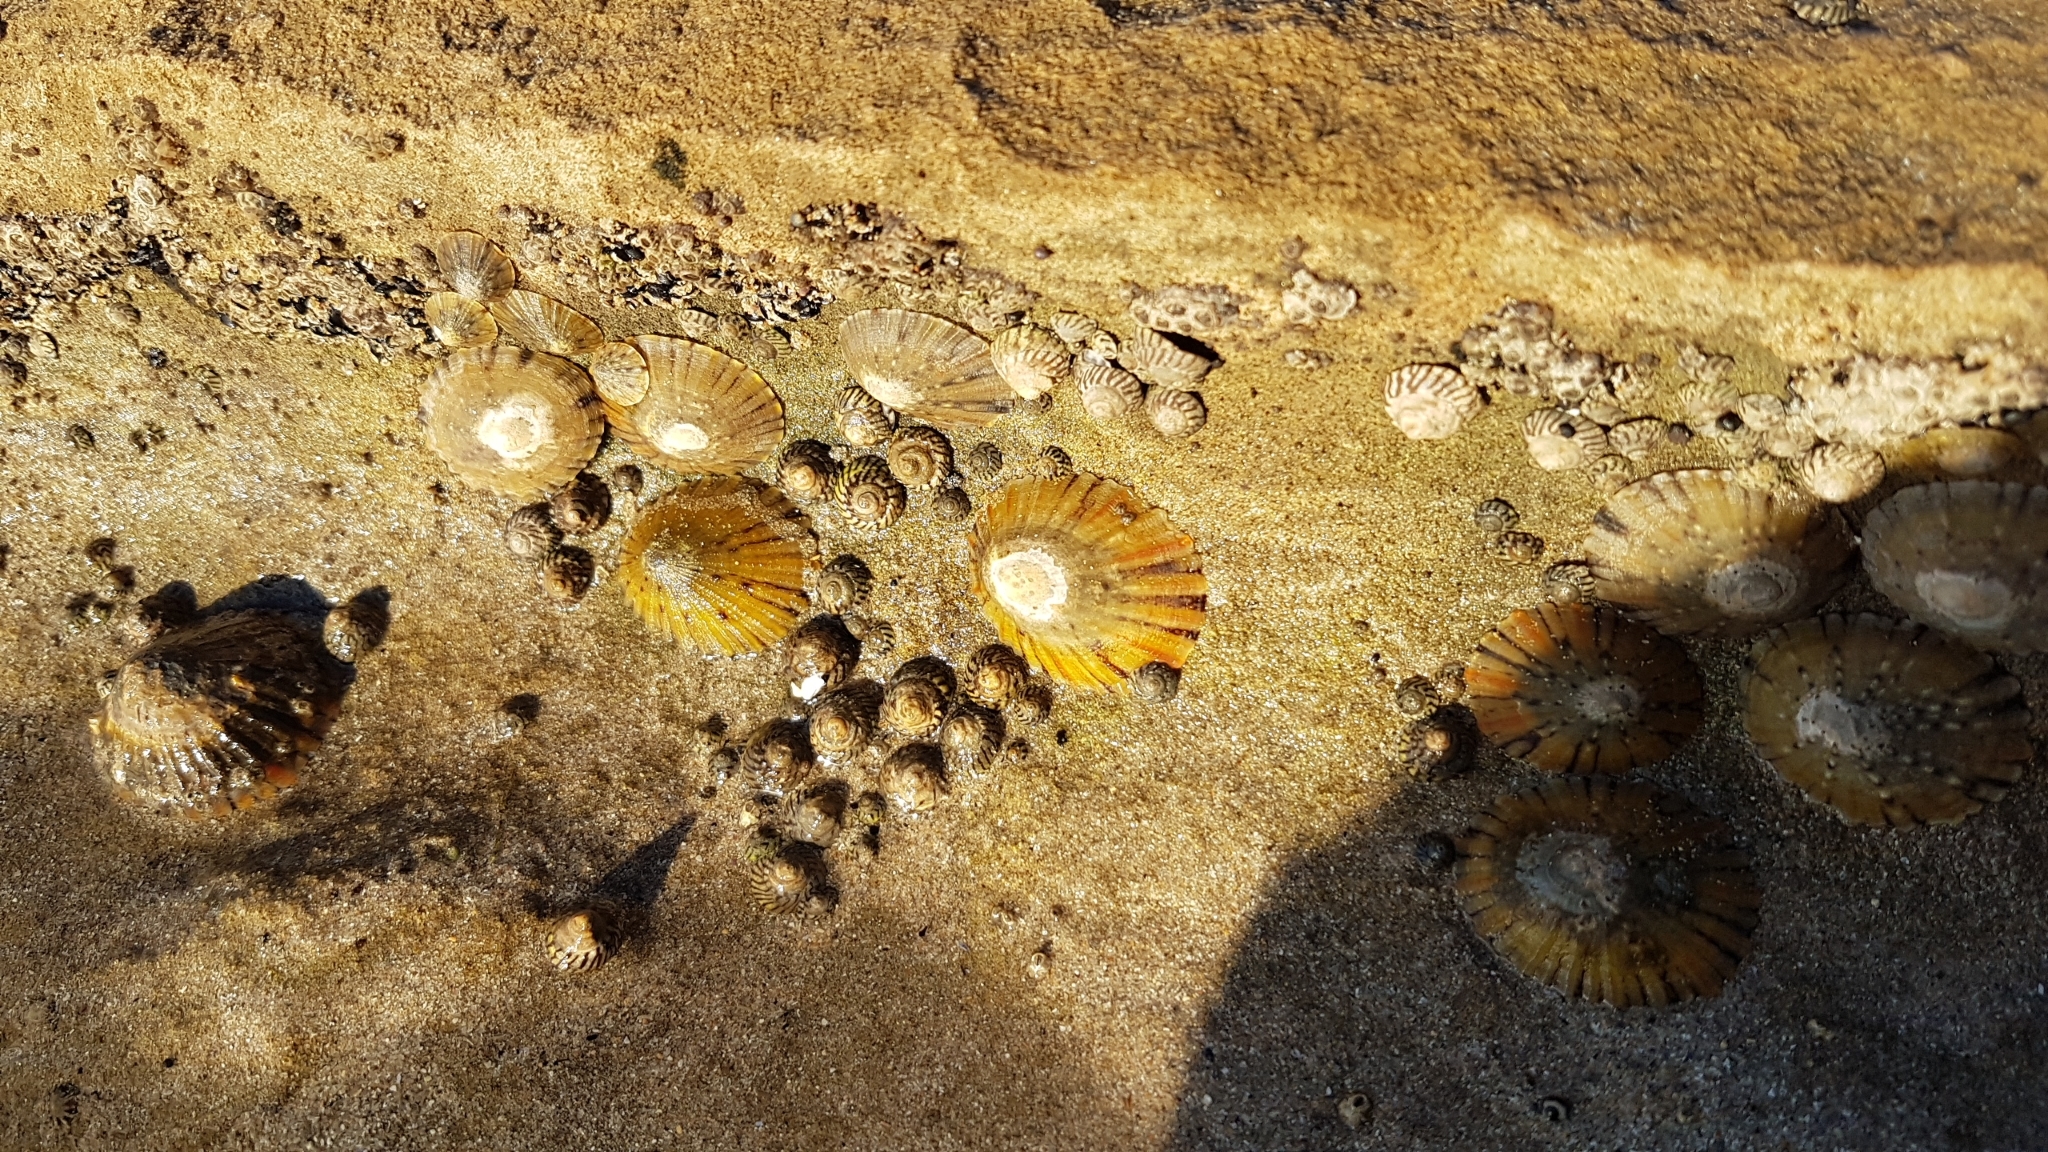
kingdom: Animalia
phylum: Mollusca
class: Gastropoda
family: Nacellidae
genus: Cellana
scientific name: Cellana tramoserica
